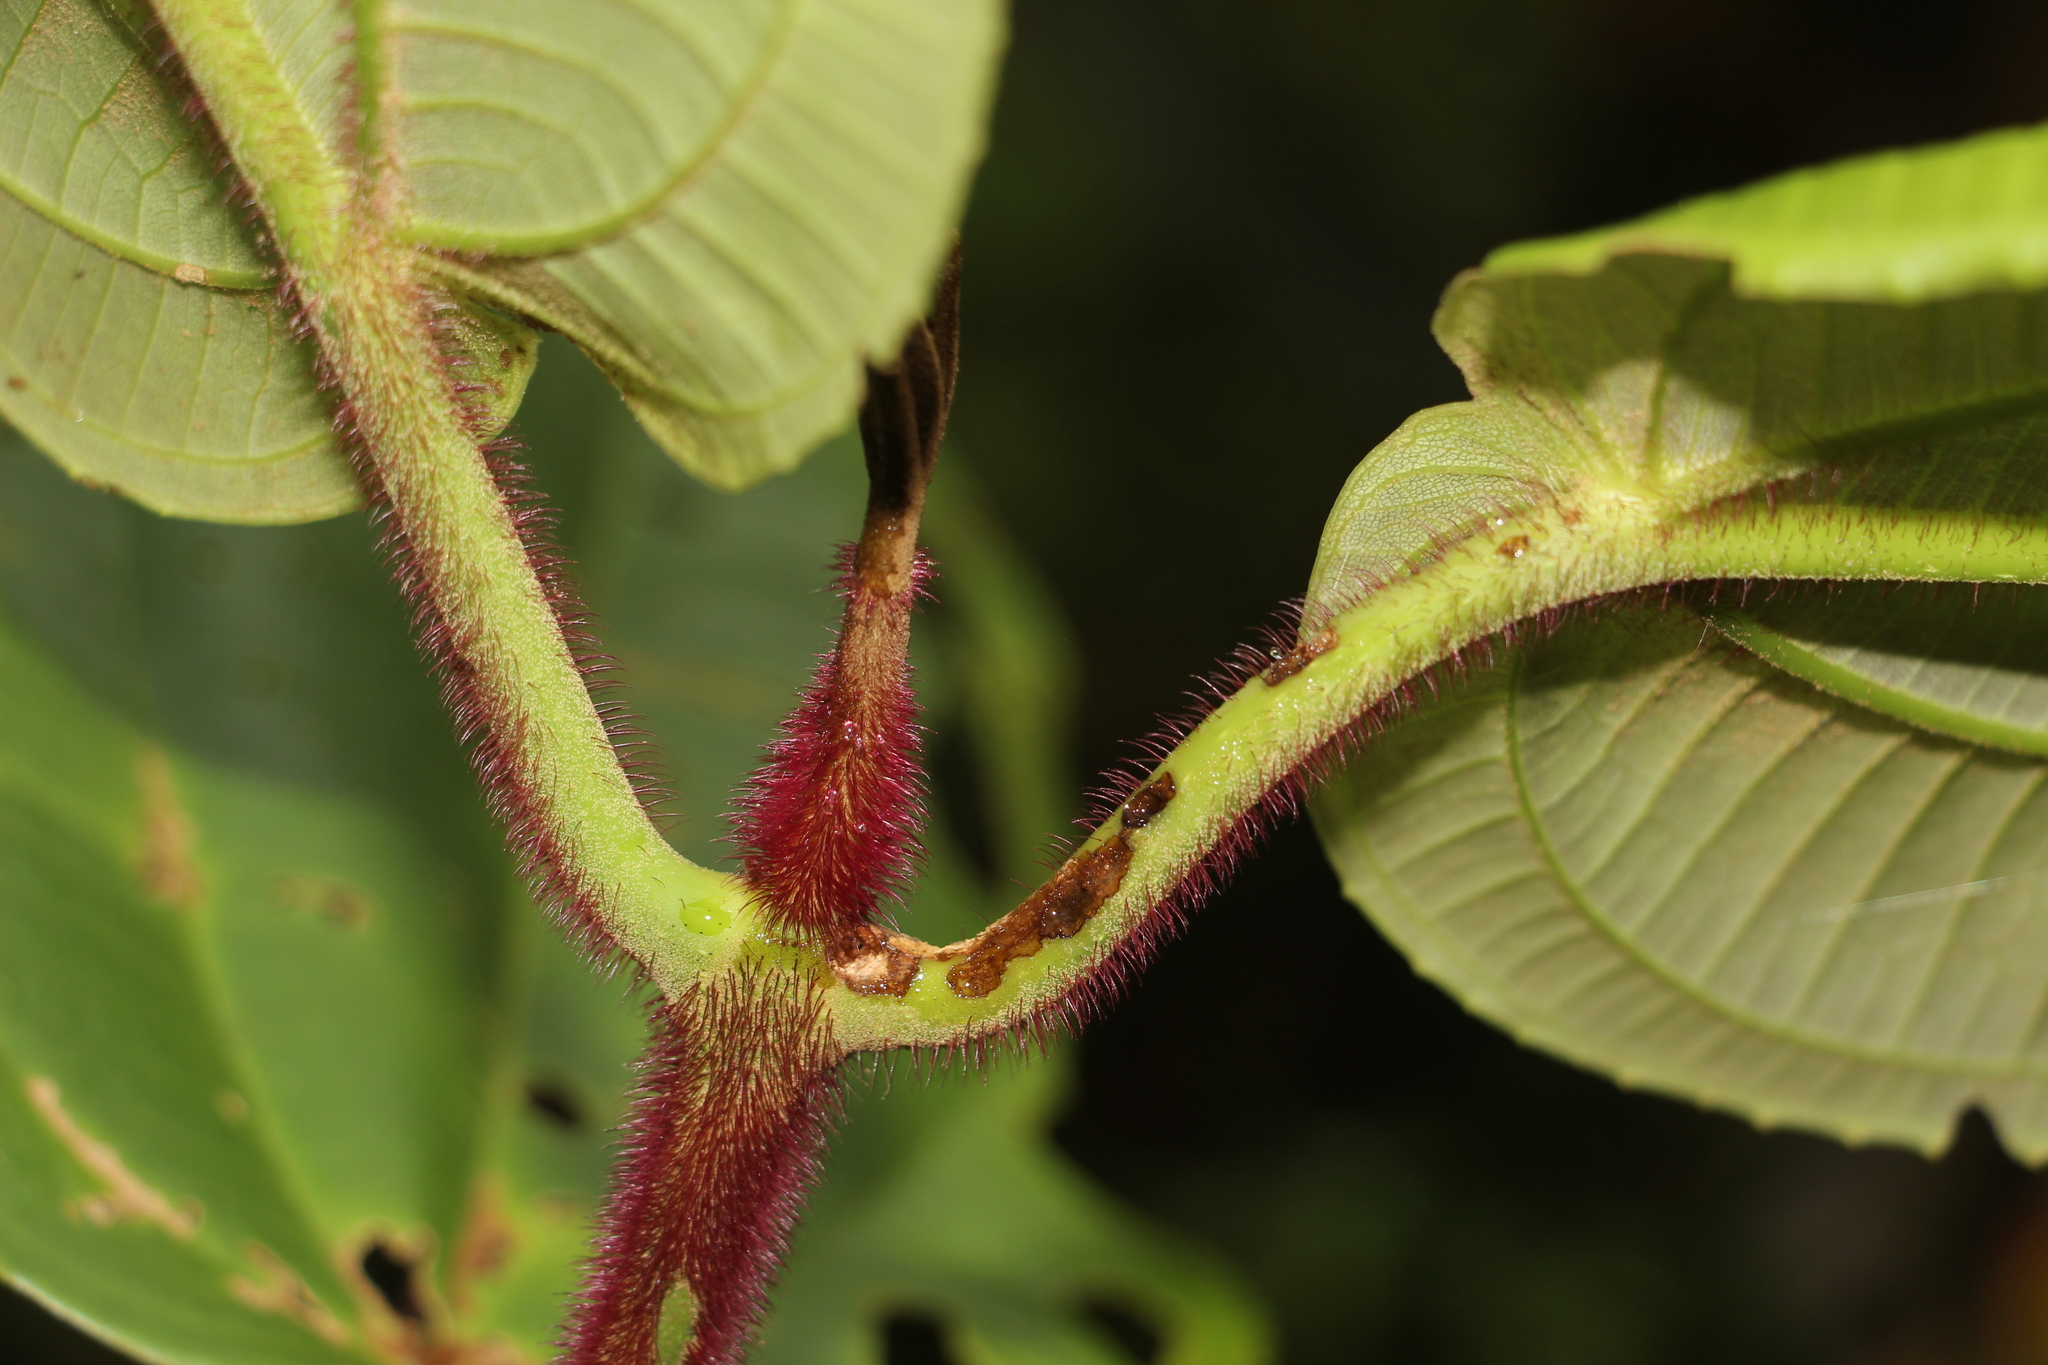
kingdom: Plantae
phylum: Tracheophyta
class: Magnoliopsida
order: Myrtales
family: Melastomataceae
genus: Meriania
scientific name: Meriania macrophylla
